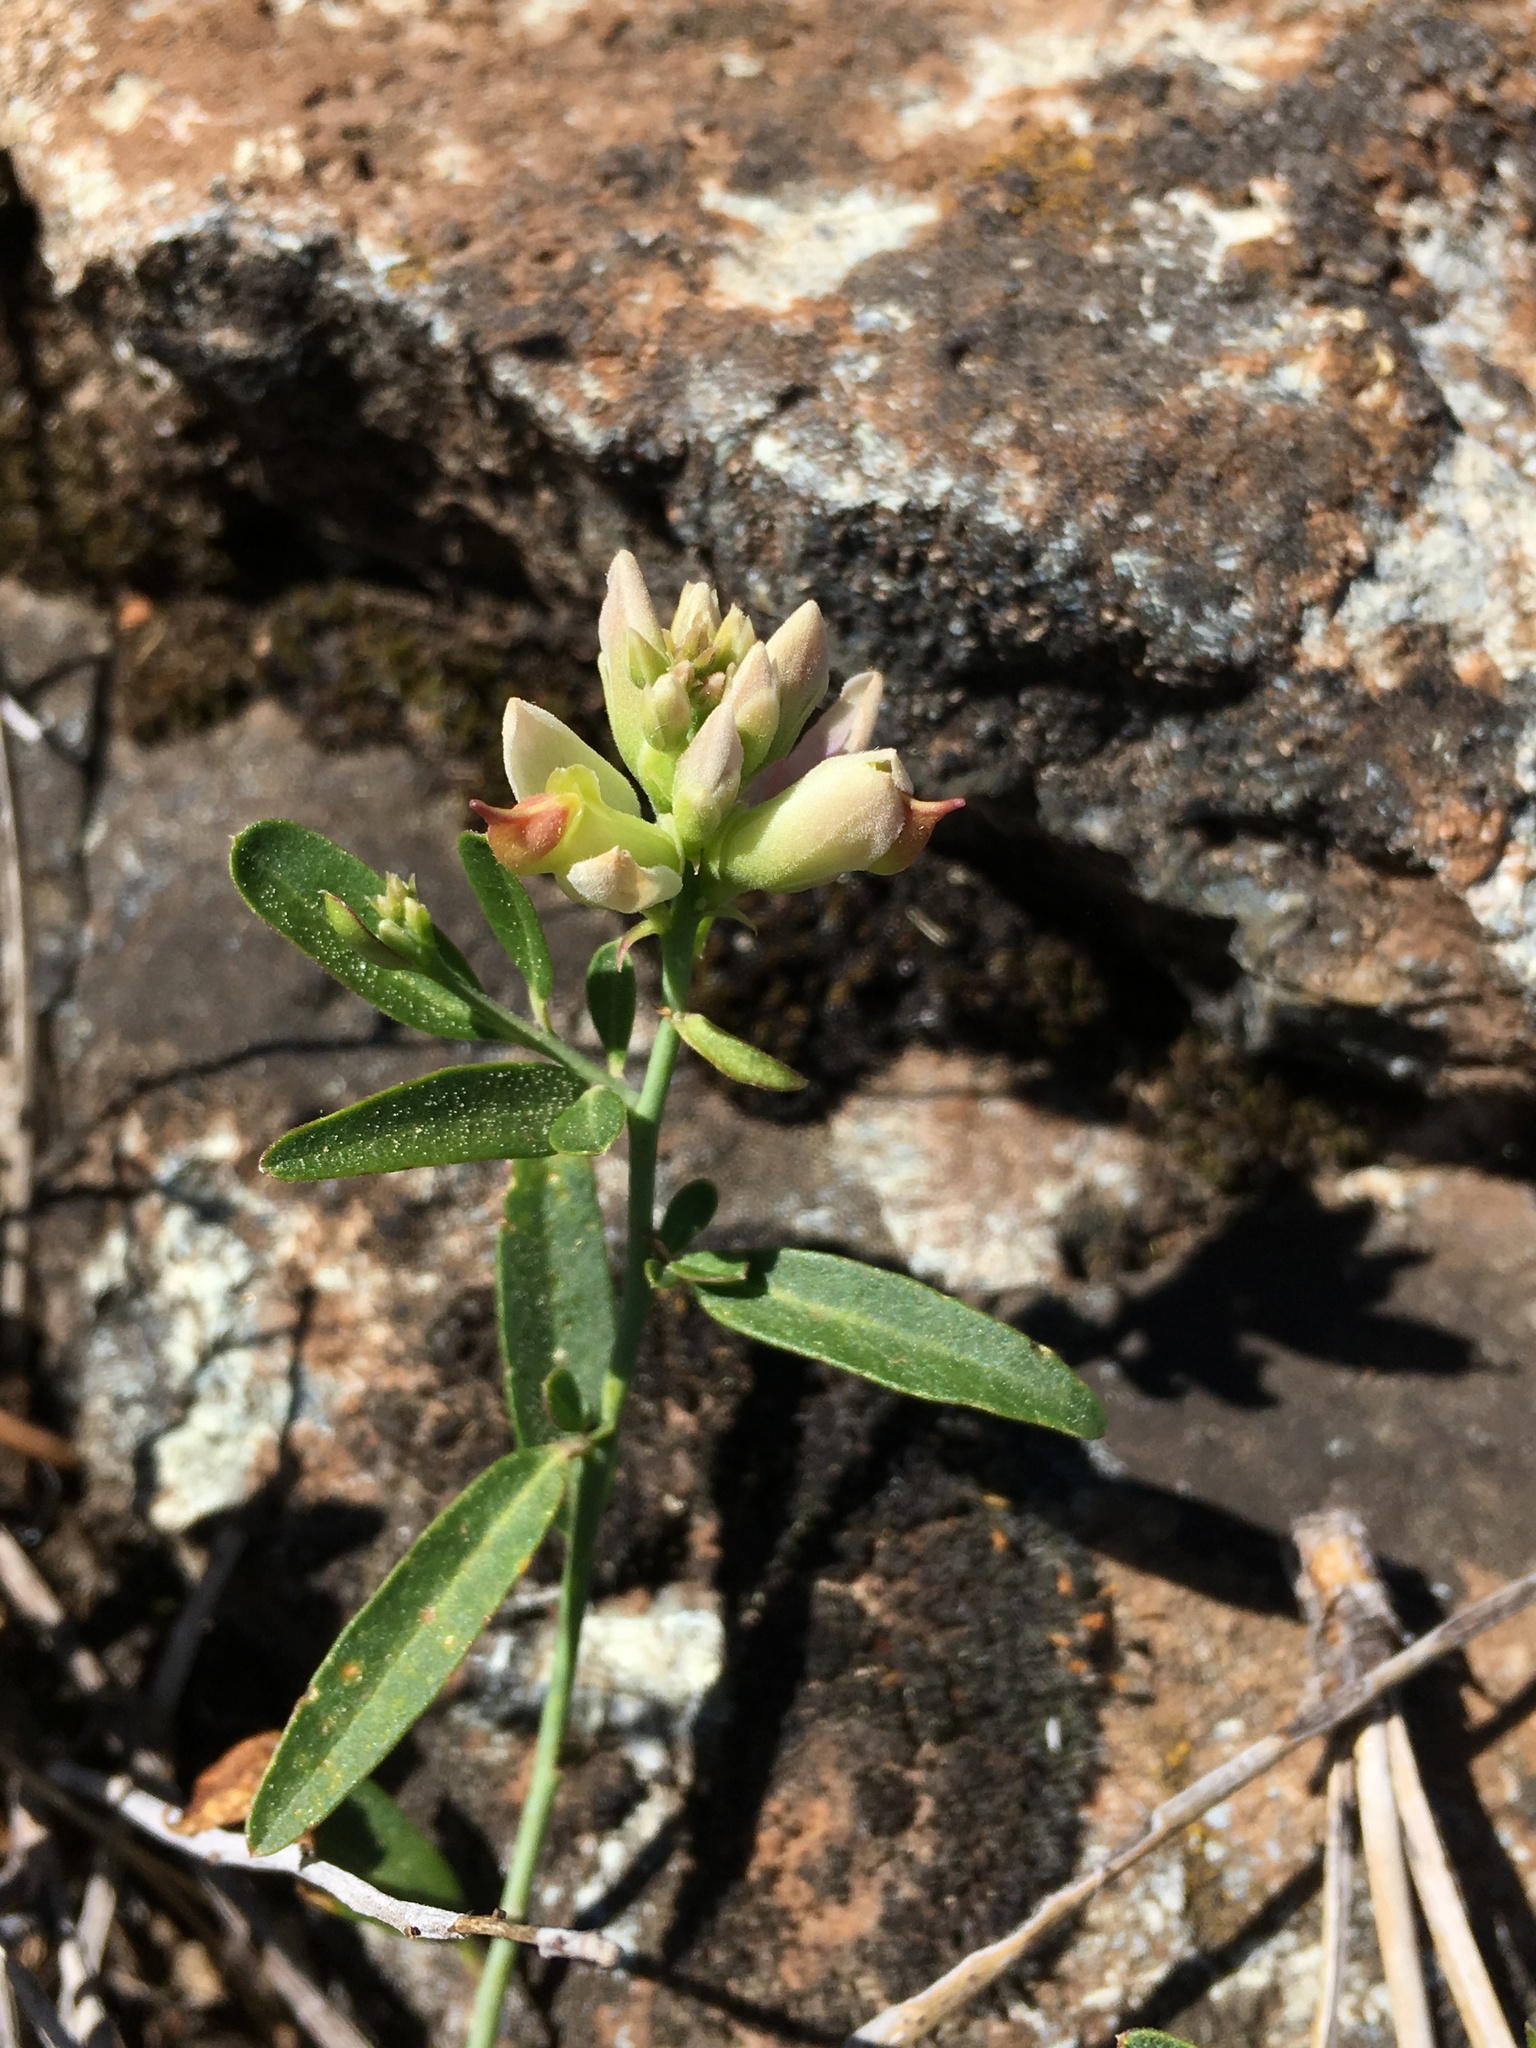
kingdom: Plantae
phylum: Tracheophyta
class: Magnoliopsida
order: Fabales
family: Polygalaceae
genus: Rhinotropis
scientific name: Rhinotropis cornuta
